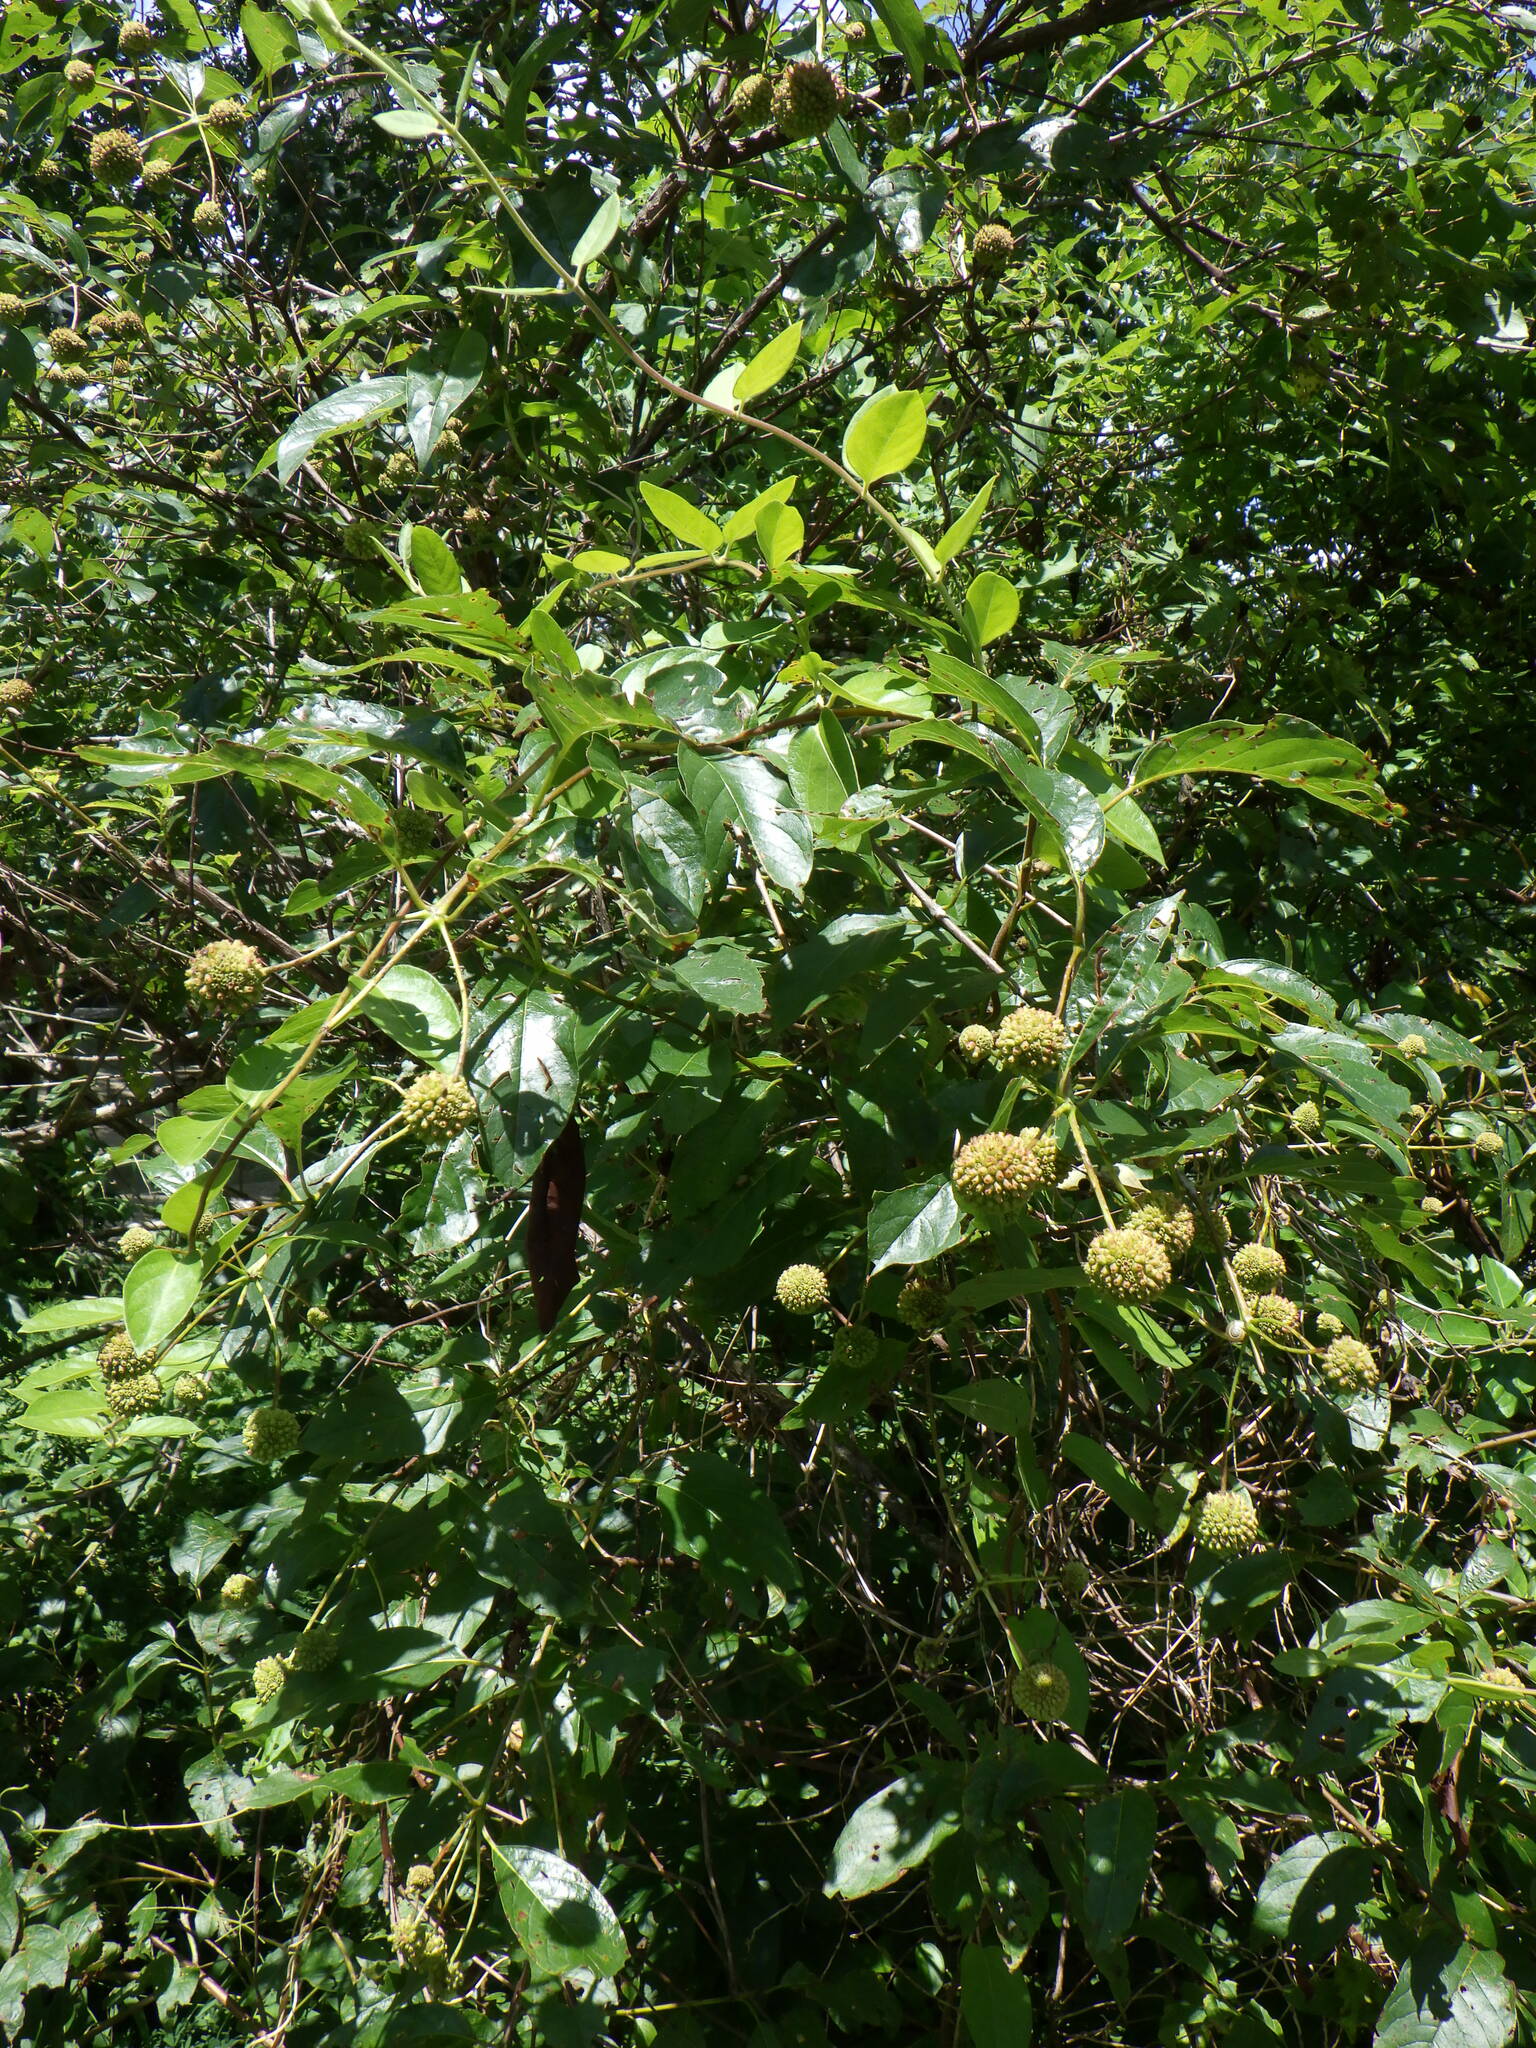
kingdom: Plantae
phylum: Tracheophyta
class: Magnoliopsida
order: Gentianales
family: Rubiaceae
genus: Cephalanthus
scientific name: Cephalanthus occidentalis
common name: Button-willow
